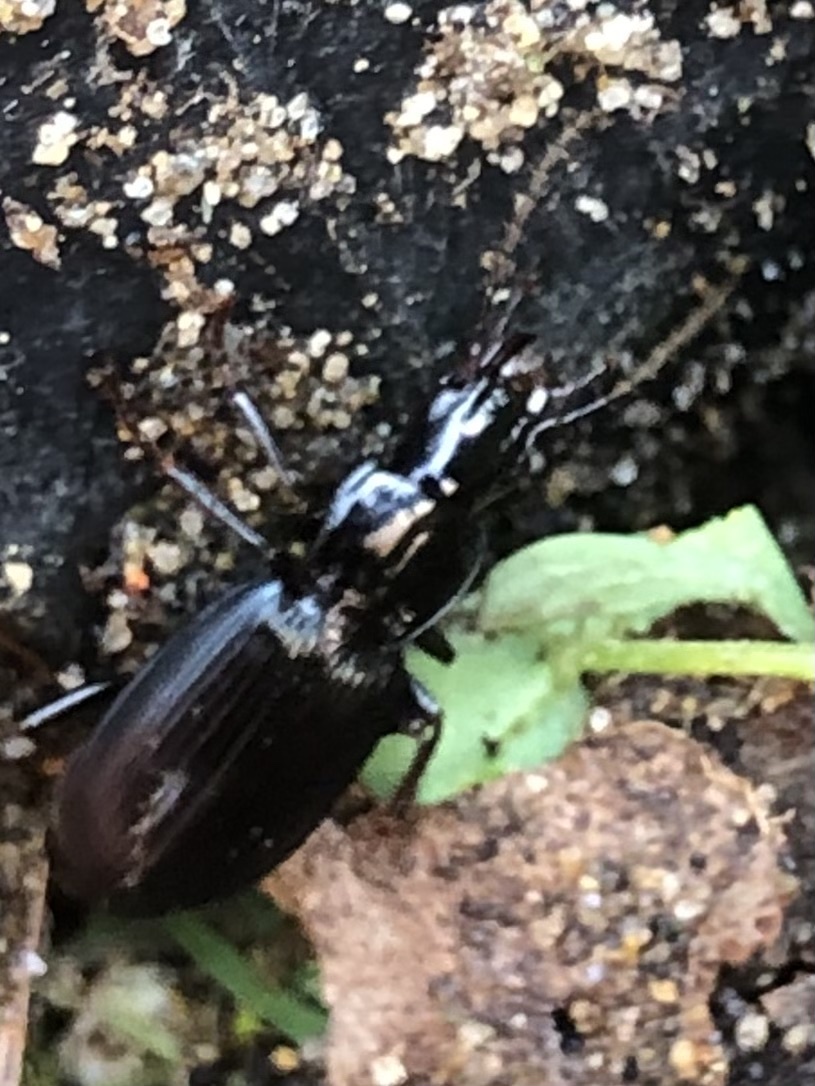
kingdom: Animalia
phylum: Arthropoda
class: Insecta
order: Coleoptera
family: Carabidae
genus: Laemostenus
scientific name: Laemostenus complanatus
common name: Cosmopolitan ground beetle
